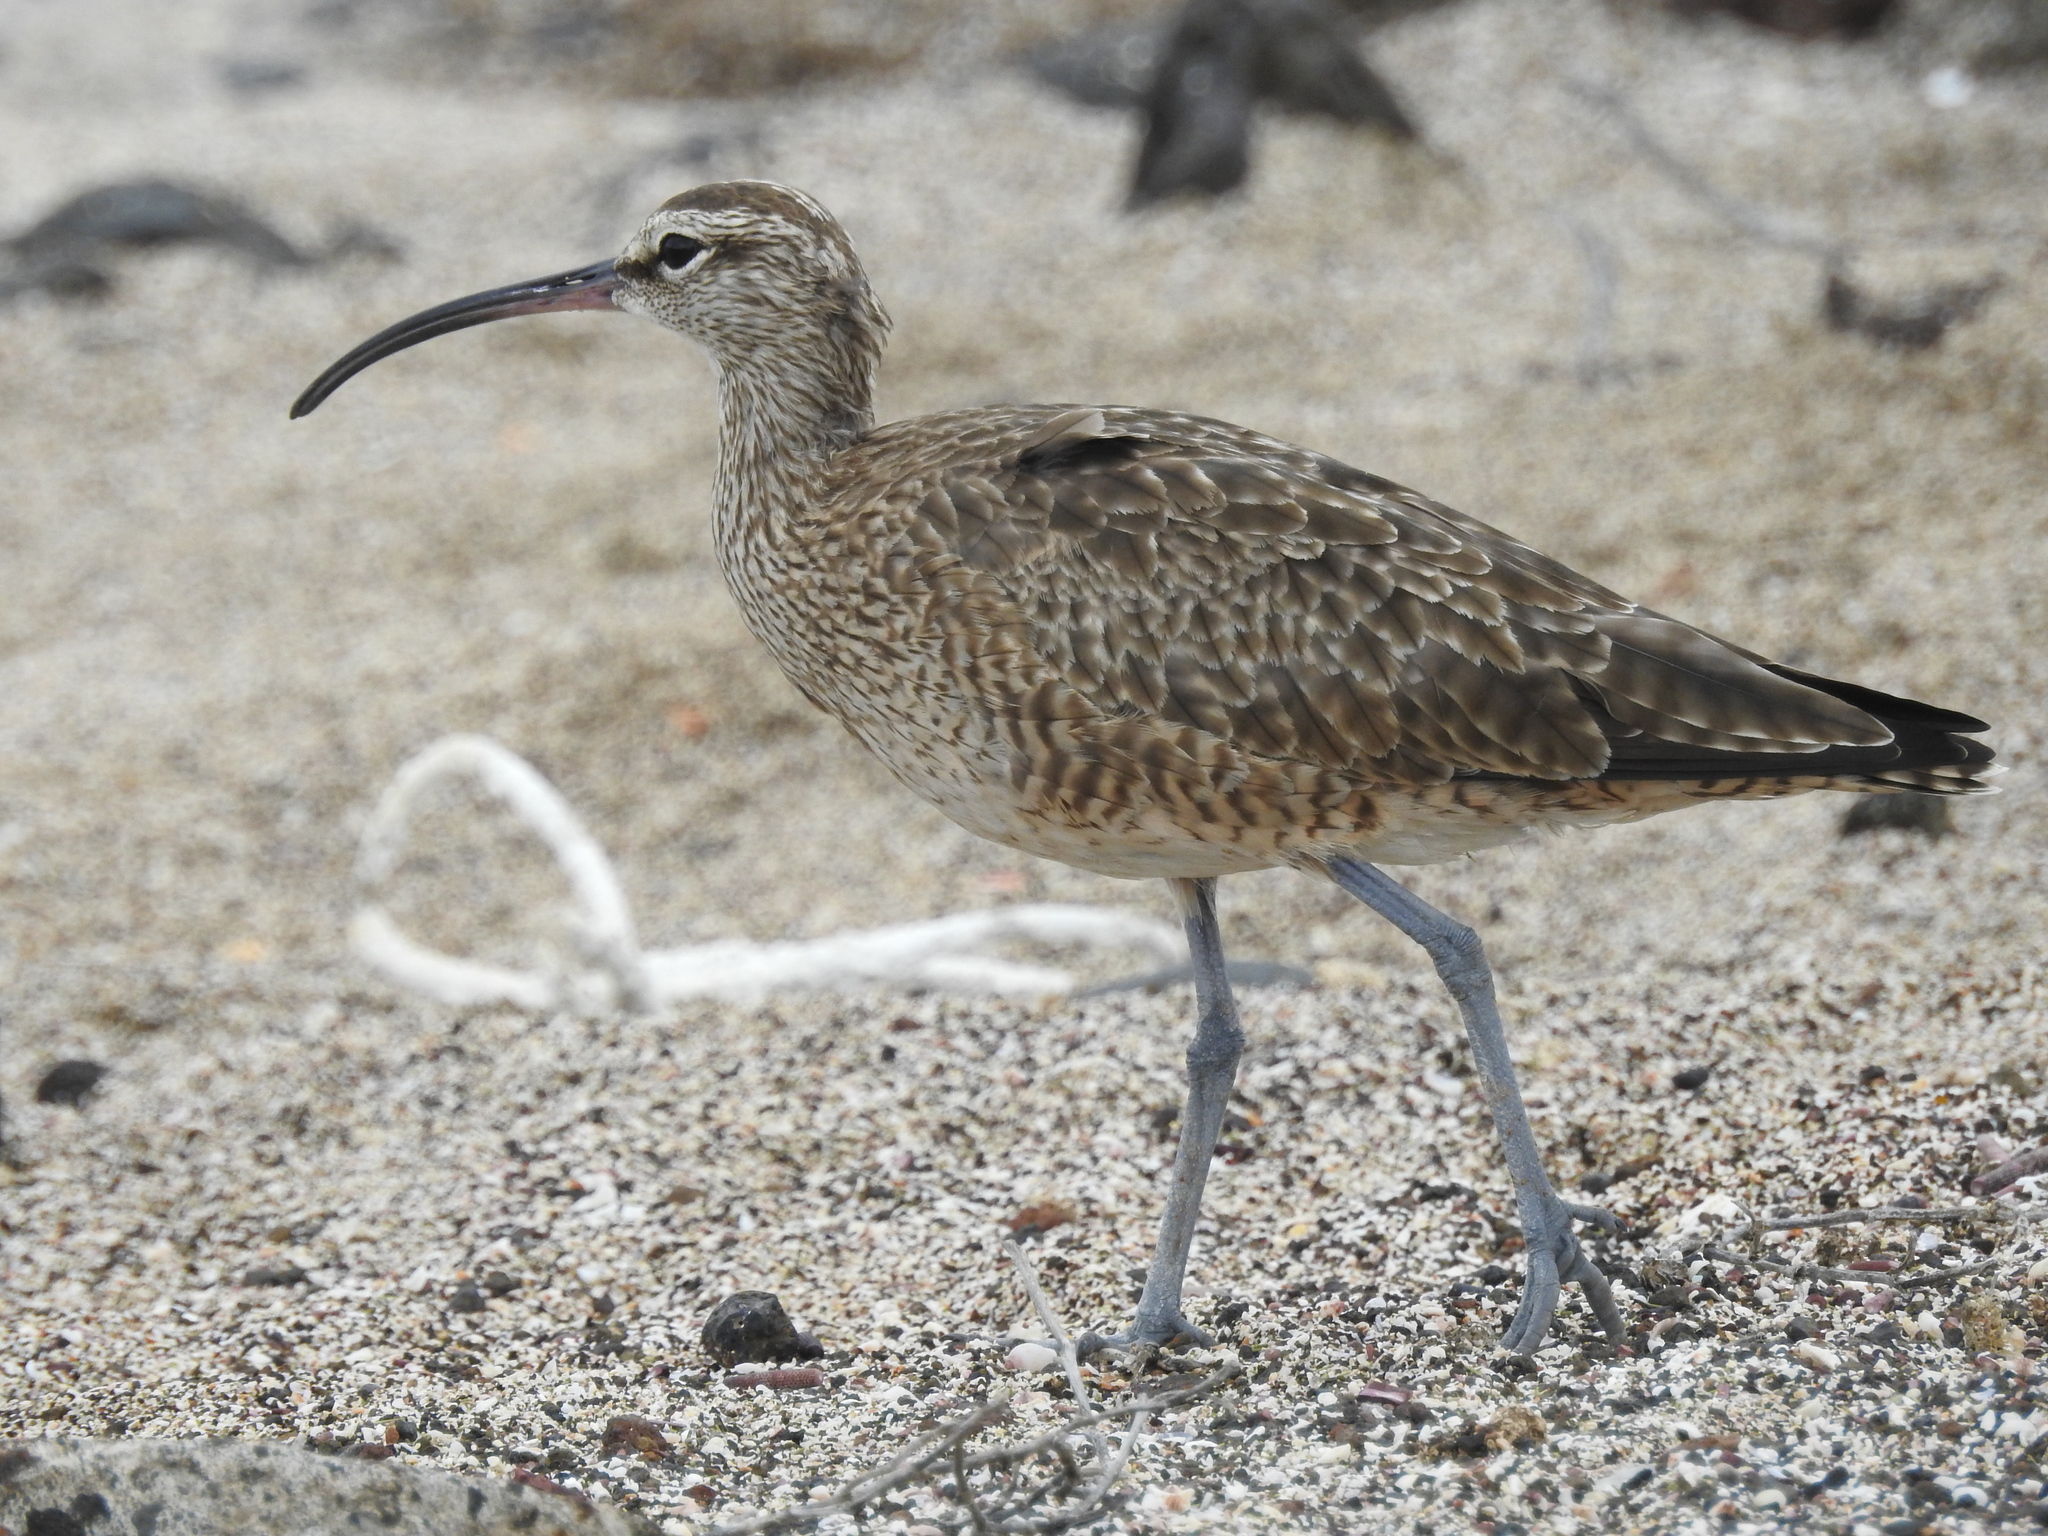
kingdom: Animalia
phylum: Chordata
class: Aves
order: Charadriiformes
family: Scolopacidae
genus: Numenius
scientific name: Numenius phaeopus
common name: Whimbrel
